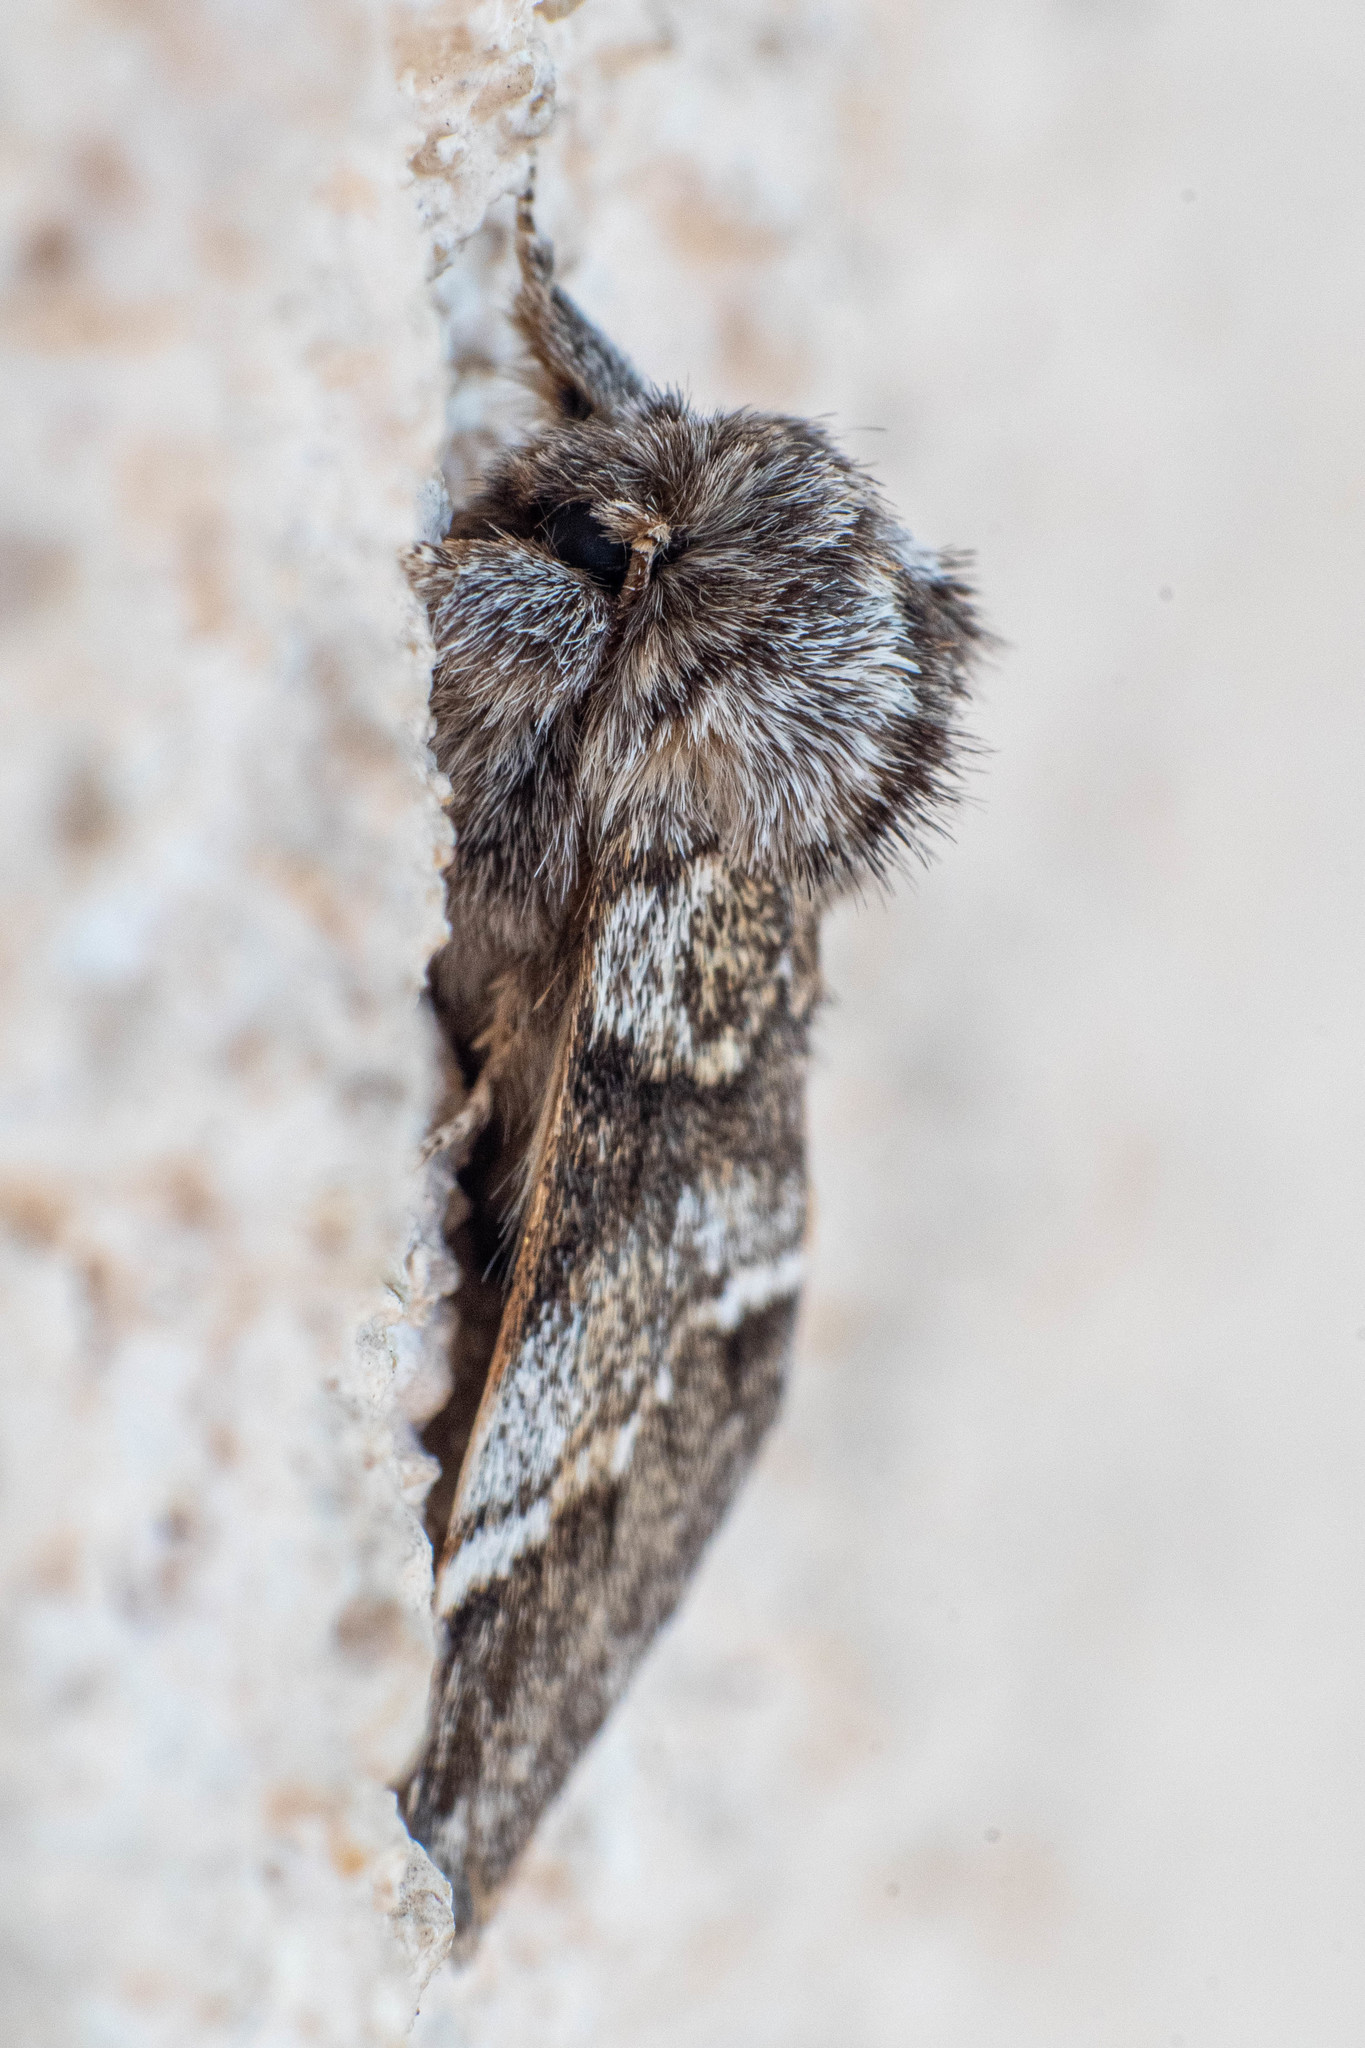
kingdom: Animalia
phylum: Arthropoda
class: Insecta
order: Lepidoptera
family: Notodontidae
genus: Drymonia
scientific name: Drymonia dodonaea
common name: Marbled brown
